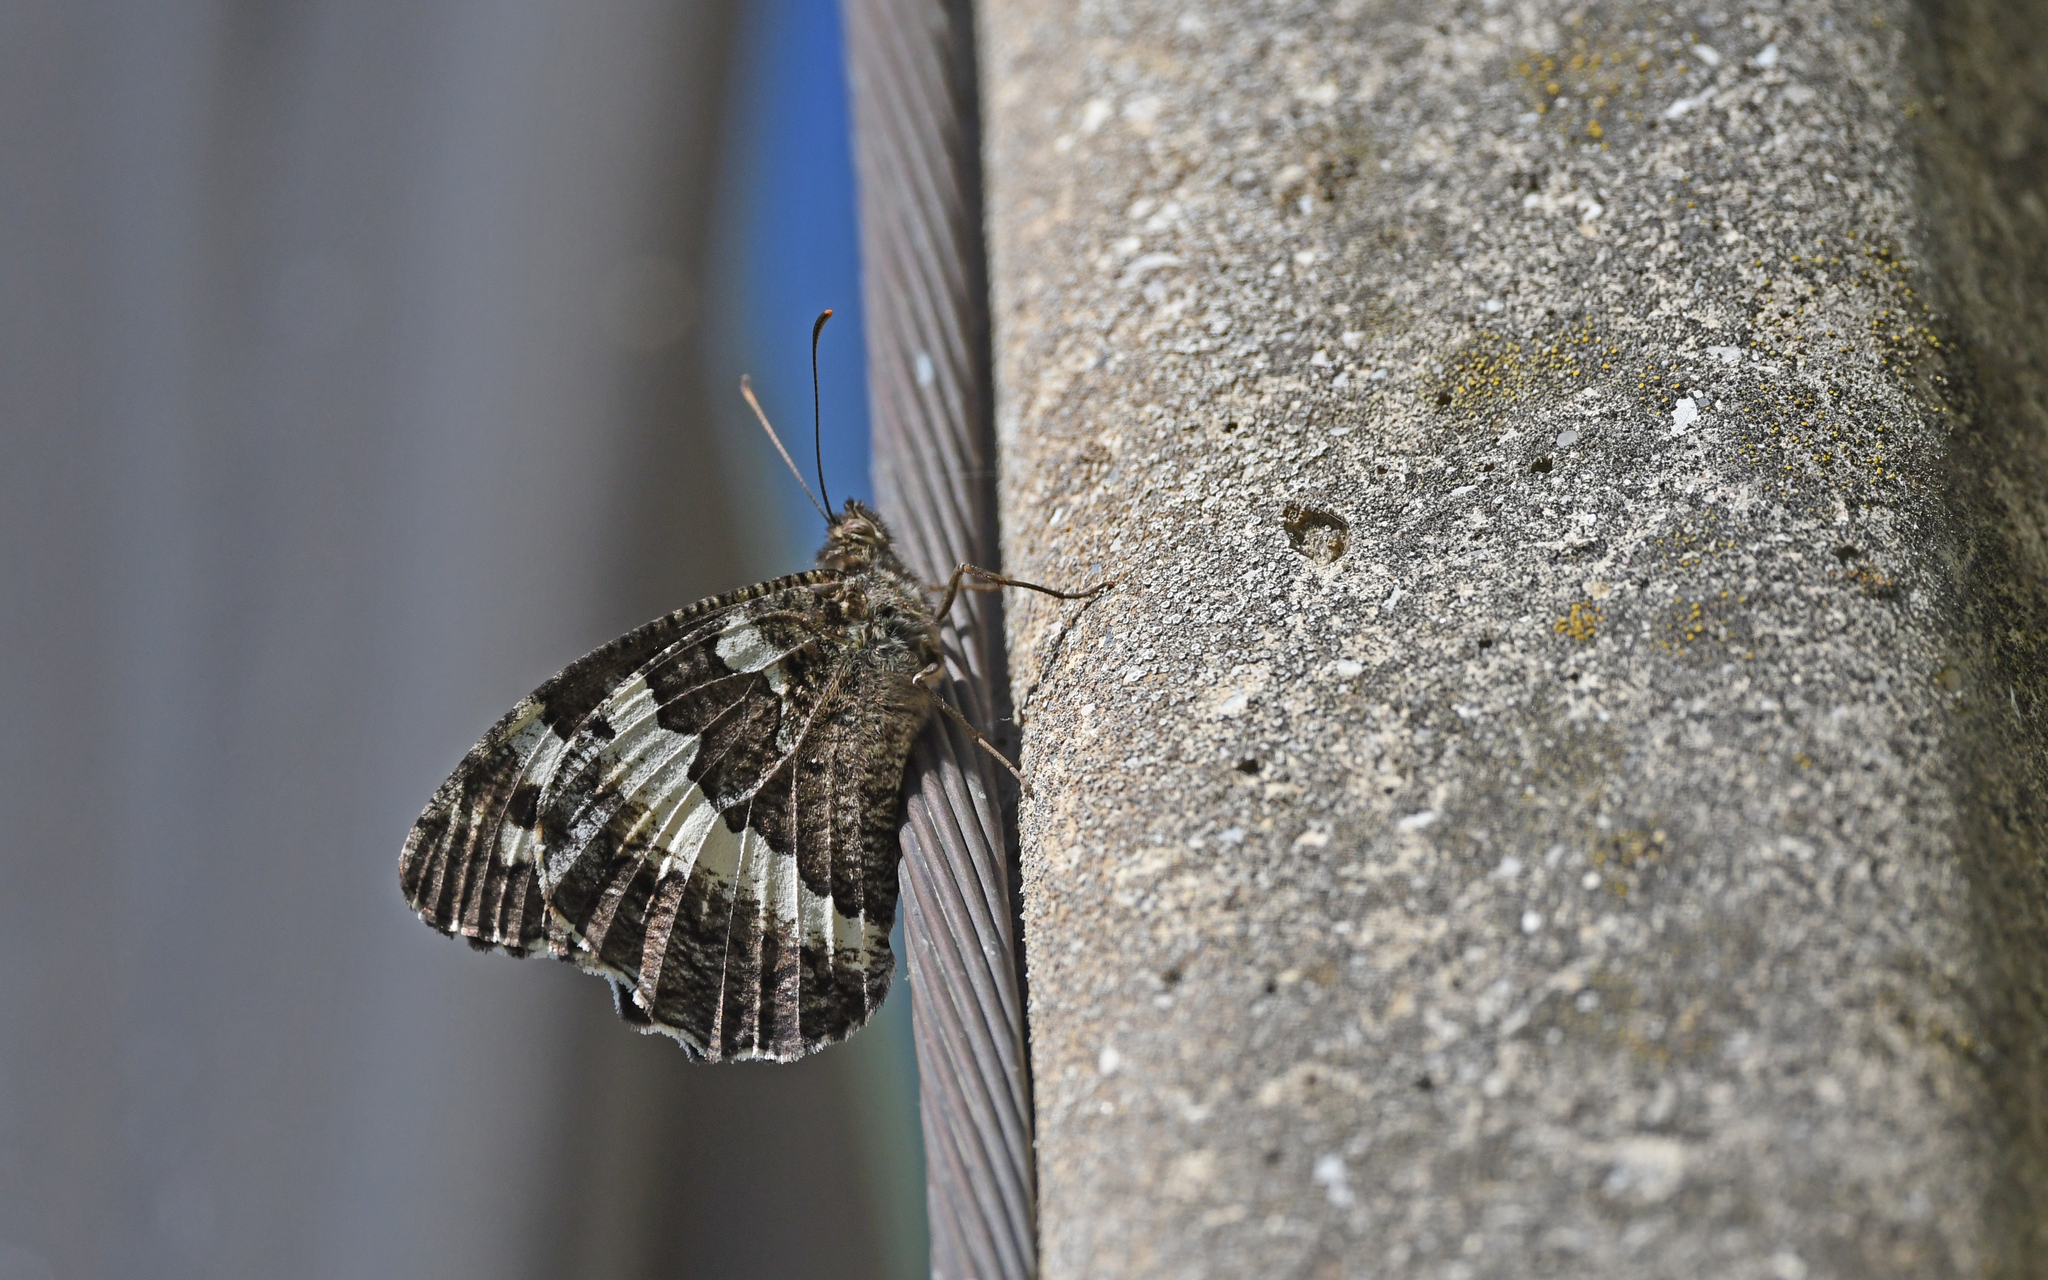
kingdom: Animalia
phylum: Arthropoda
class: Insecta
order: Lepidoptera
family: Lycaenidae
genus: Loweia
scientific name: Loweia tityrus
